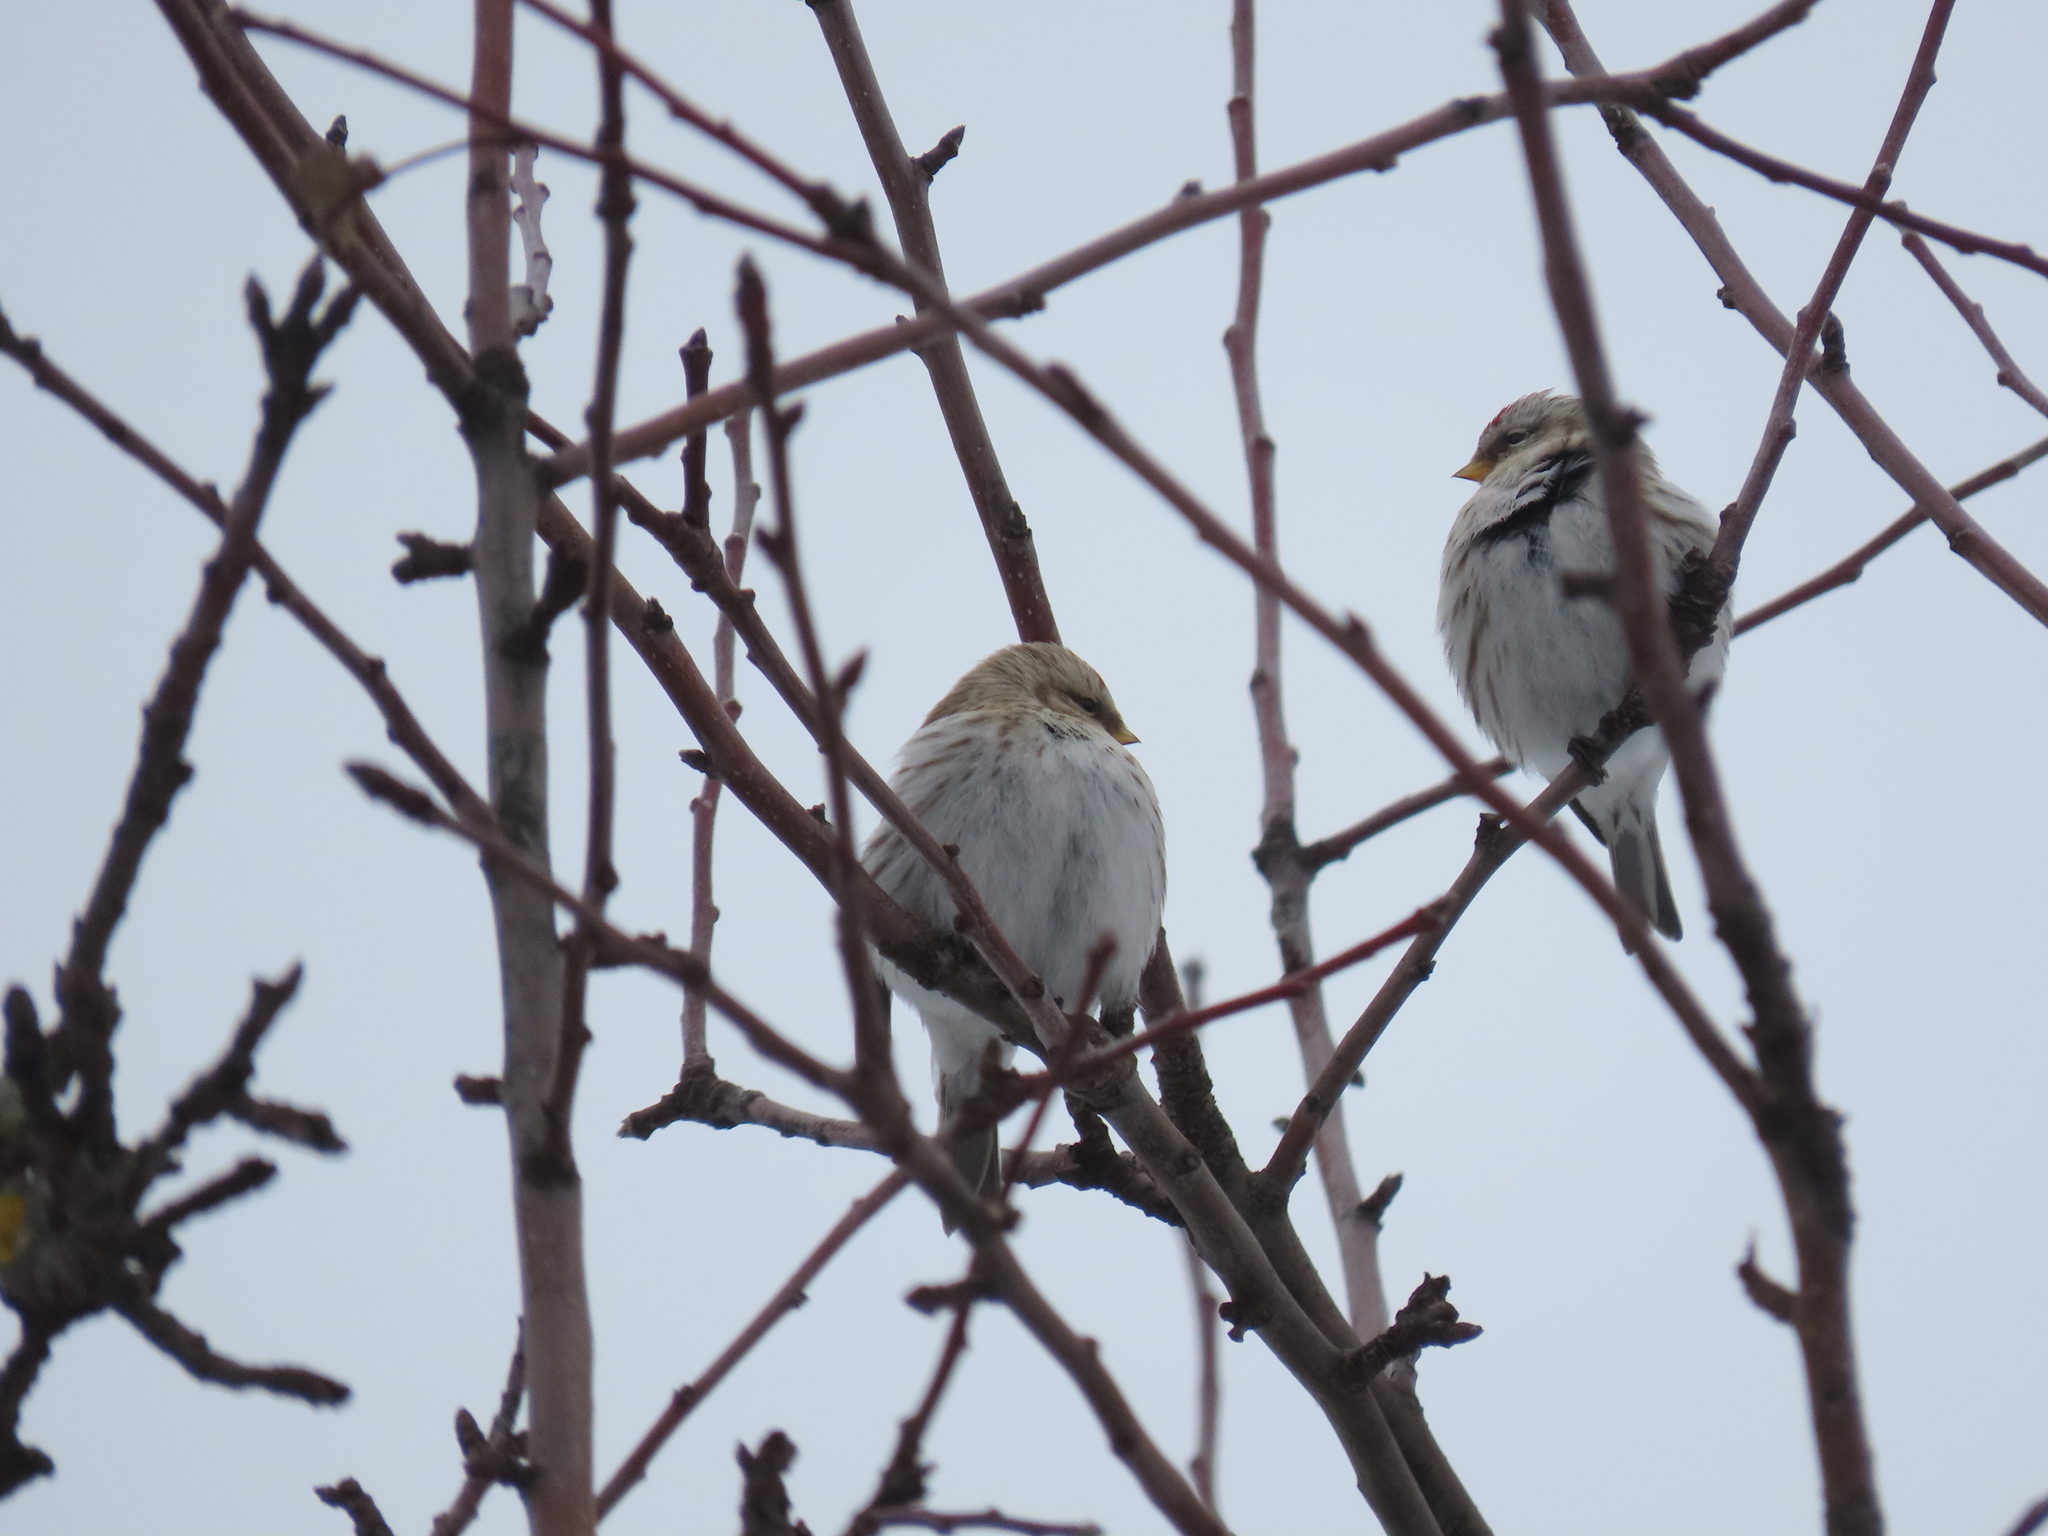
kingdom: Animalia
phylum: Chordata
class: Aves
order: Passeriformes
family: Fringillidae
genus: Acanthis
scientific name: Acanthis hornemanni
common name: Arctic redpoll
